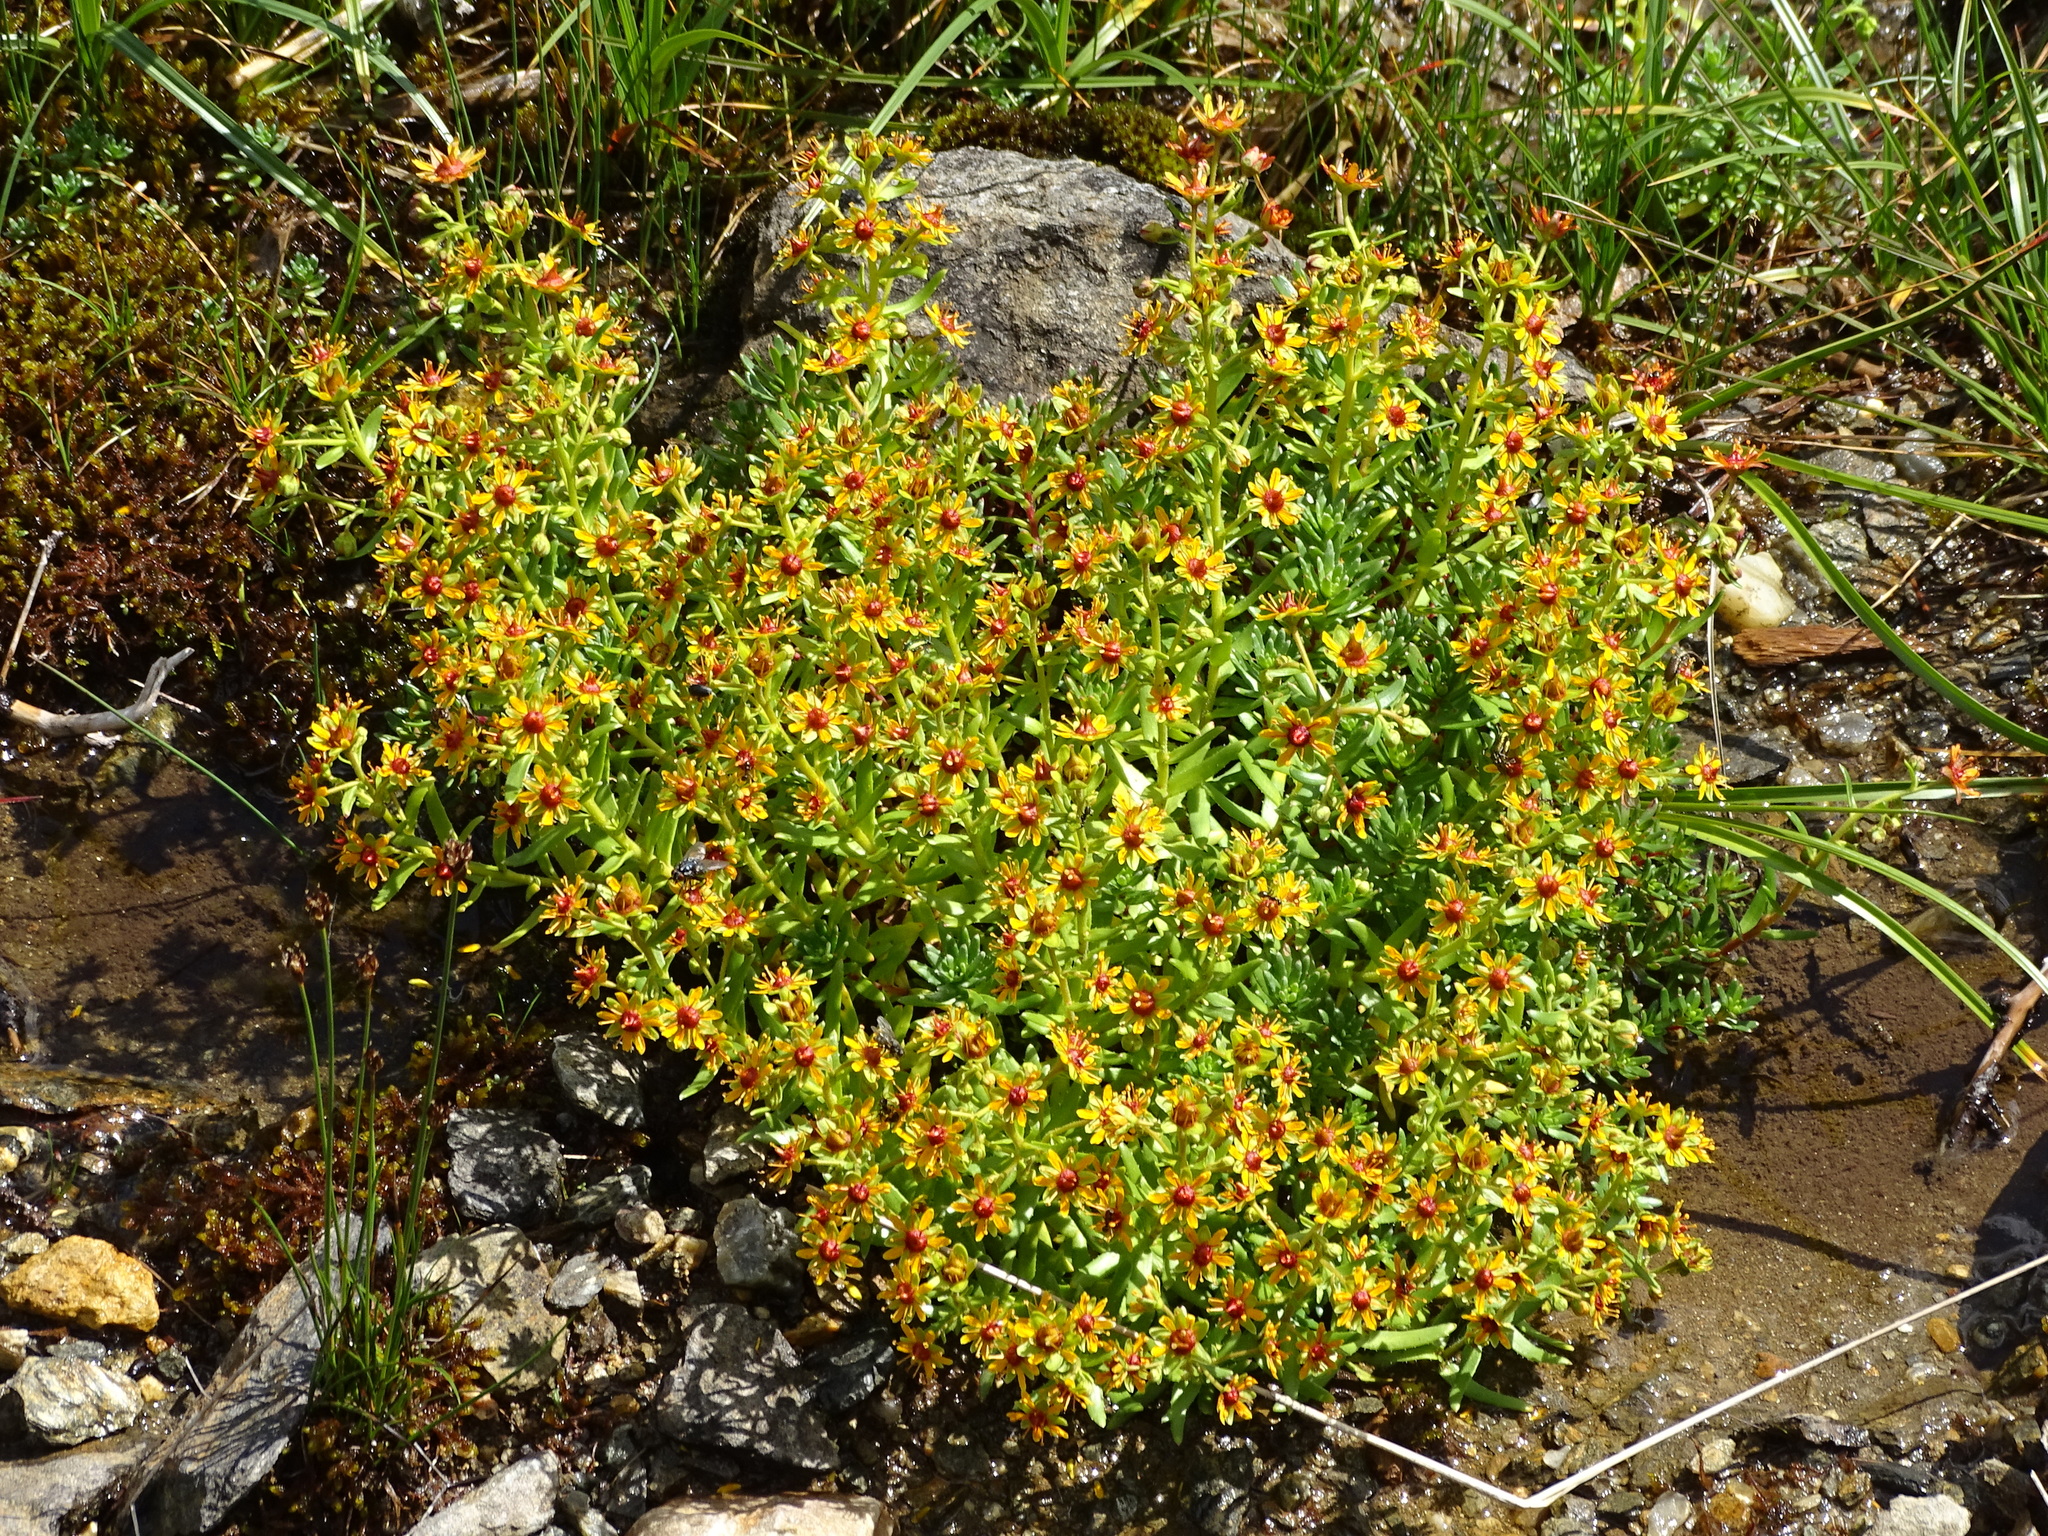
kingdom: Plantae
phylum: Tracheophyta
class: Magnoliopsida
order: Saxifragales
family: Saxifragaceae
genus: Saxifraga
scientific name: Saxifraga aizoides
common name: Yellow mountain saxifrage
